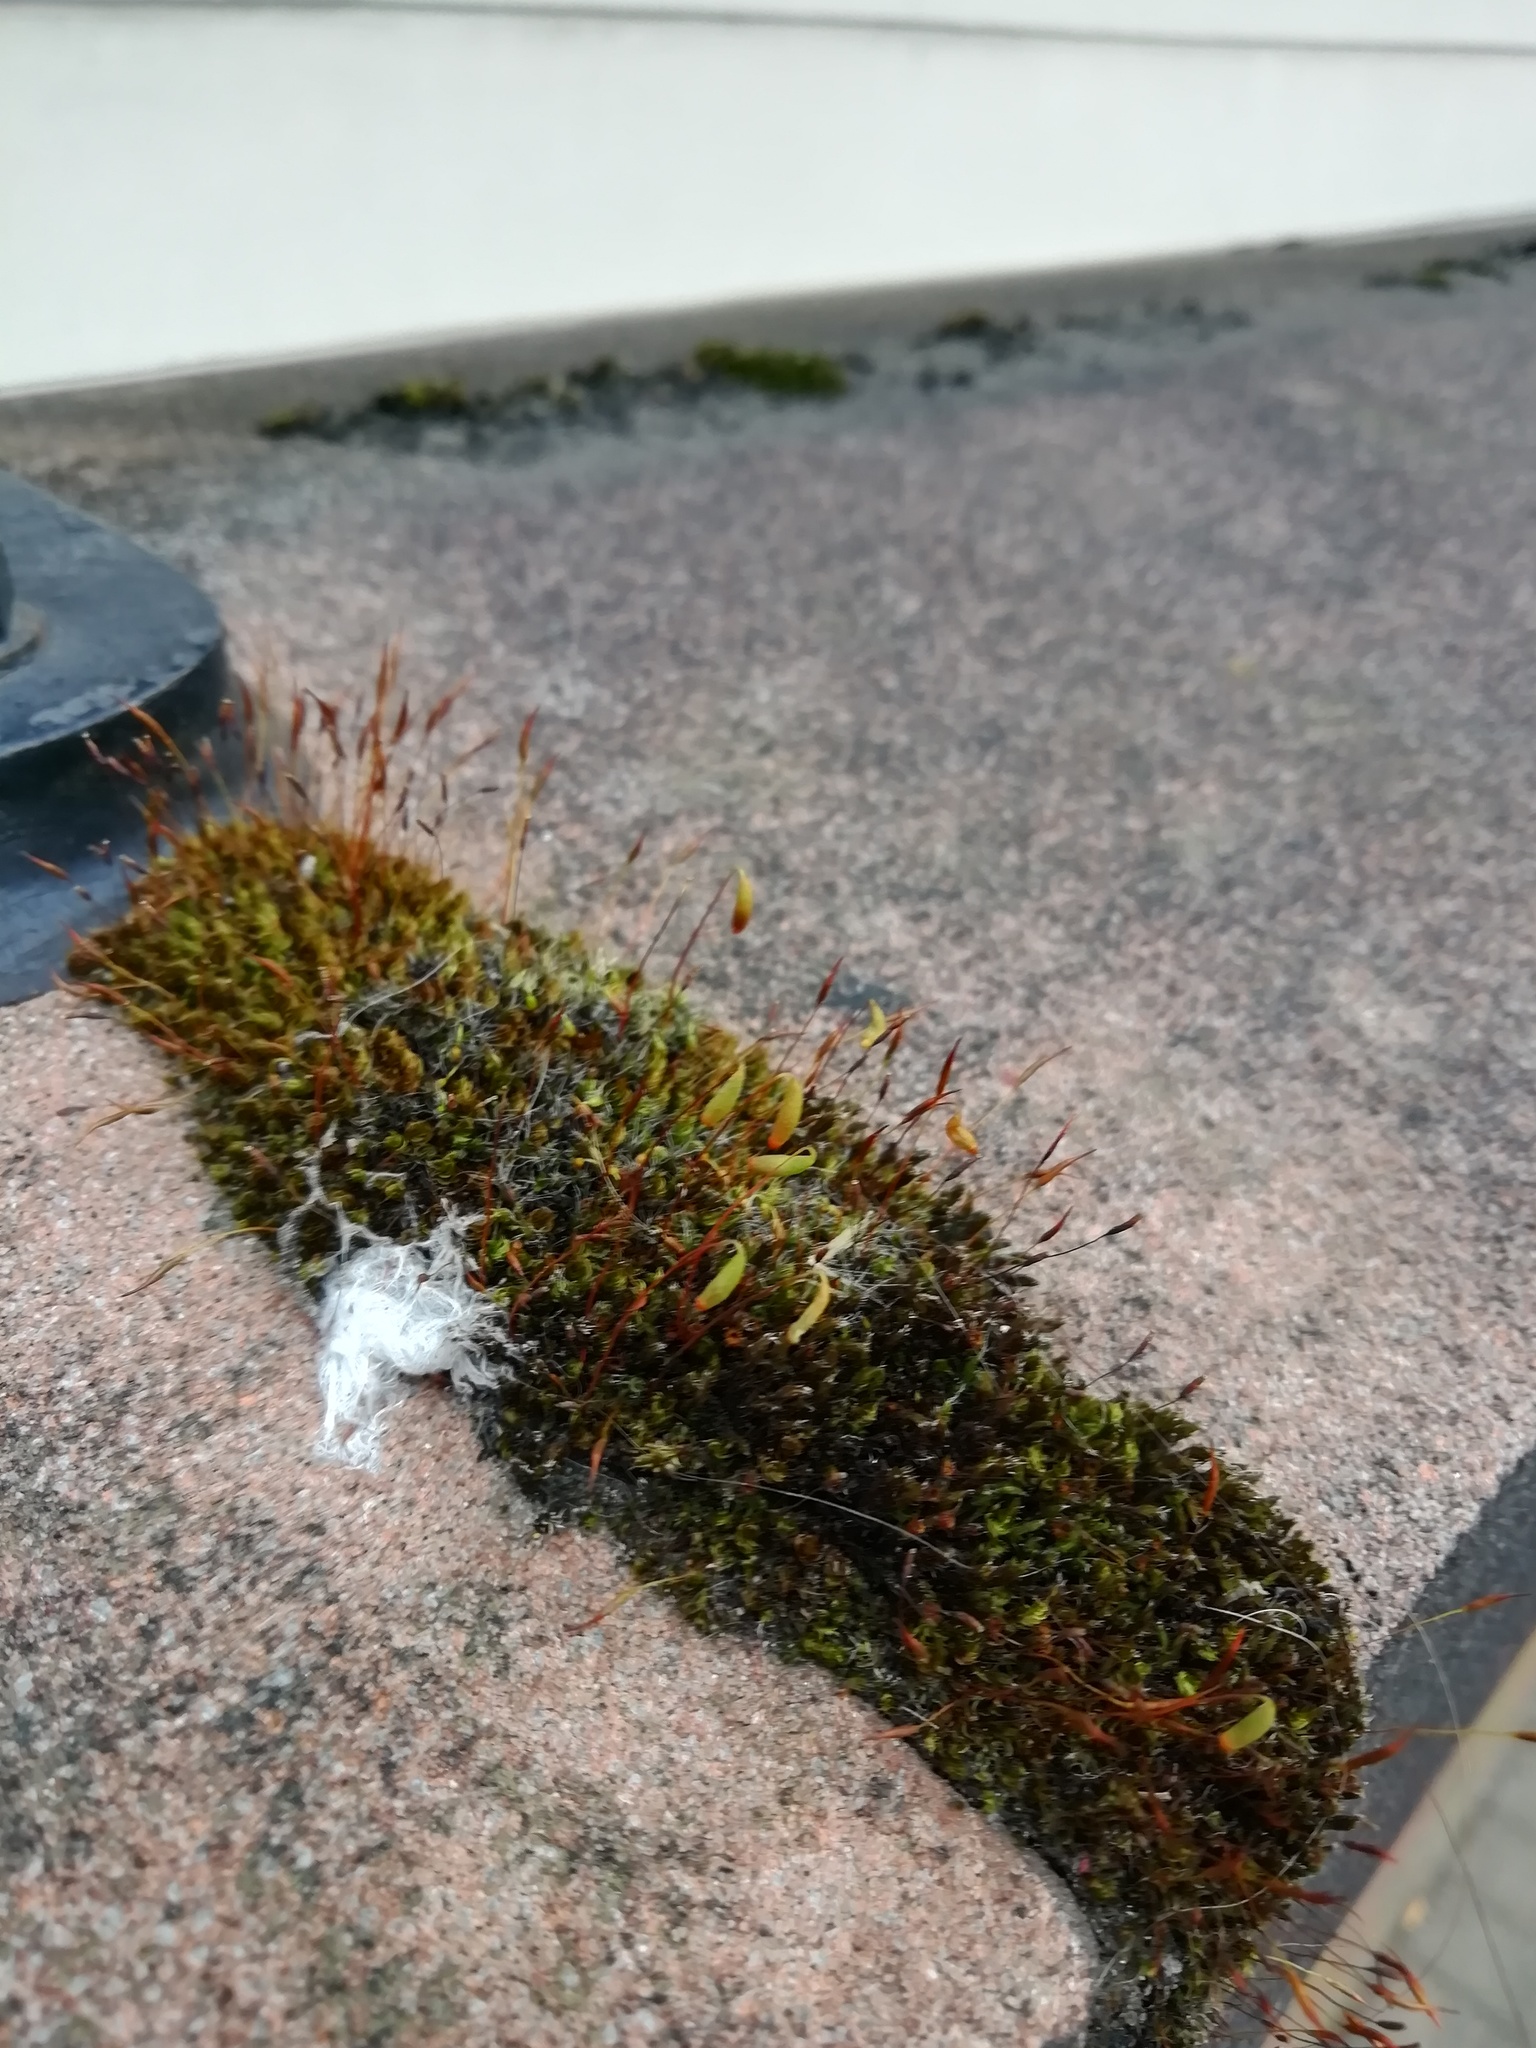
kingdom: Plantae
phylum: Bryophyta
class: Bryopsida
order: Bryales
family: Bryaceae
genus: Rosulabryum
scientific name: Rosulabryum capillare
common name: Capillary thread-moss
